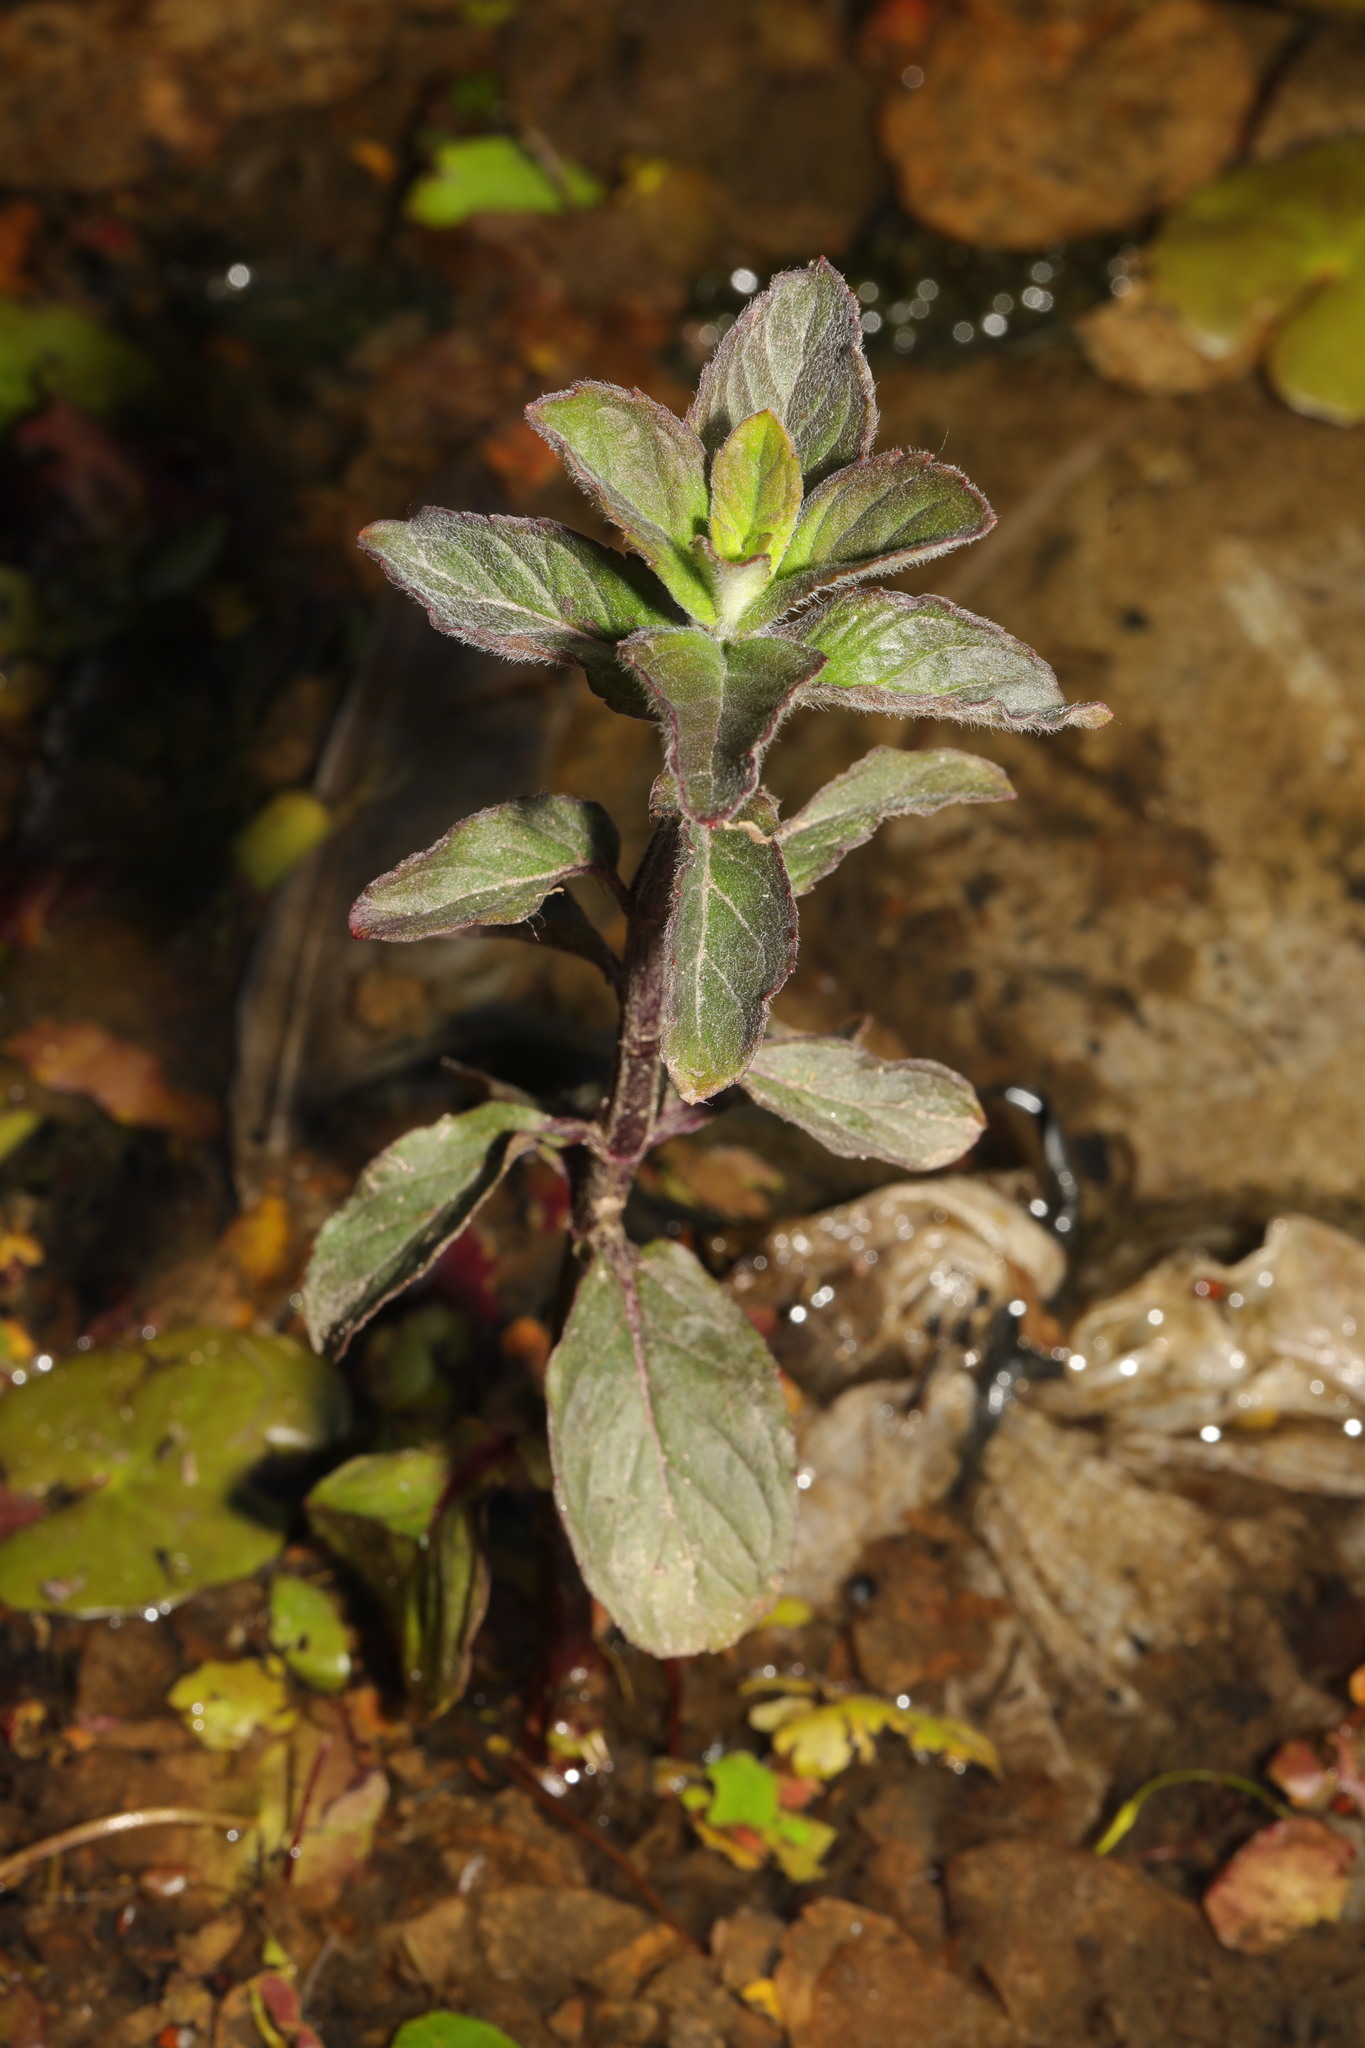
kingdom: Plantae
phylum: Tracheophyta
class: Magnoliopsida
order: Lamiales
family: Lamiaceae
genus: Mentha
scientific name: Mentha aquatica
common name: Water mint
